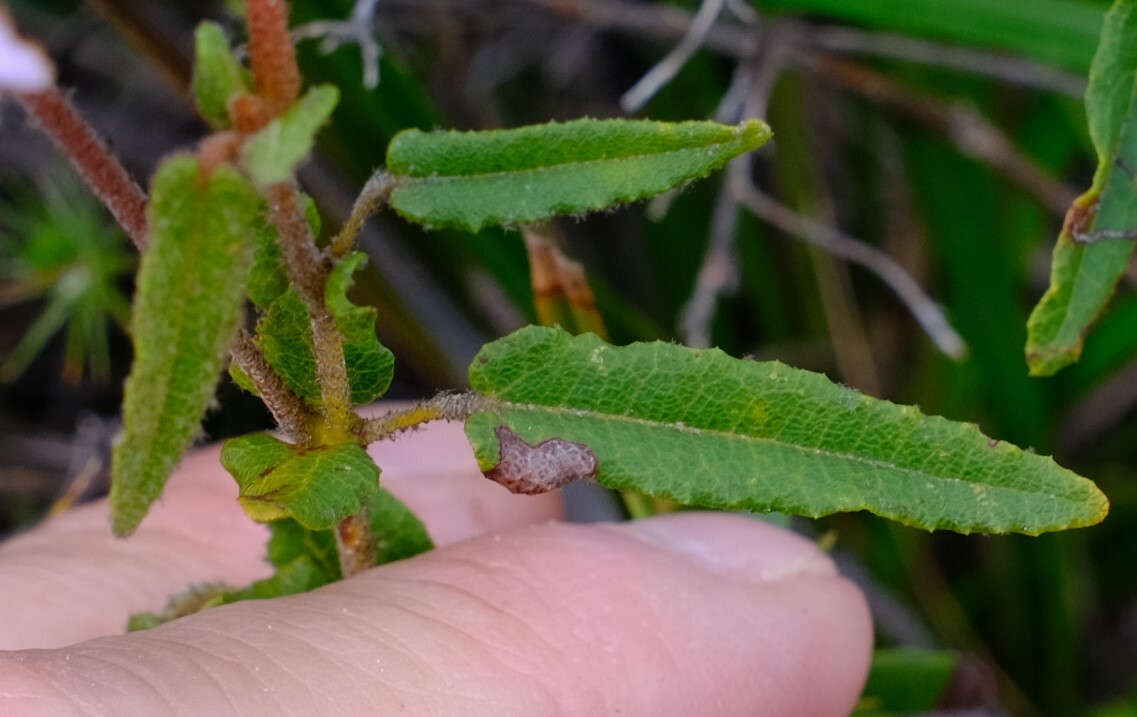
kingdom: Plantae
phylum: Tracheophyta
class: Magnoliopsida
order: Malvales
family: Malvaceae
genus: Thomasia
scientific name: Thomasia grandiflora
